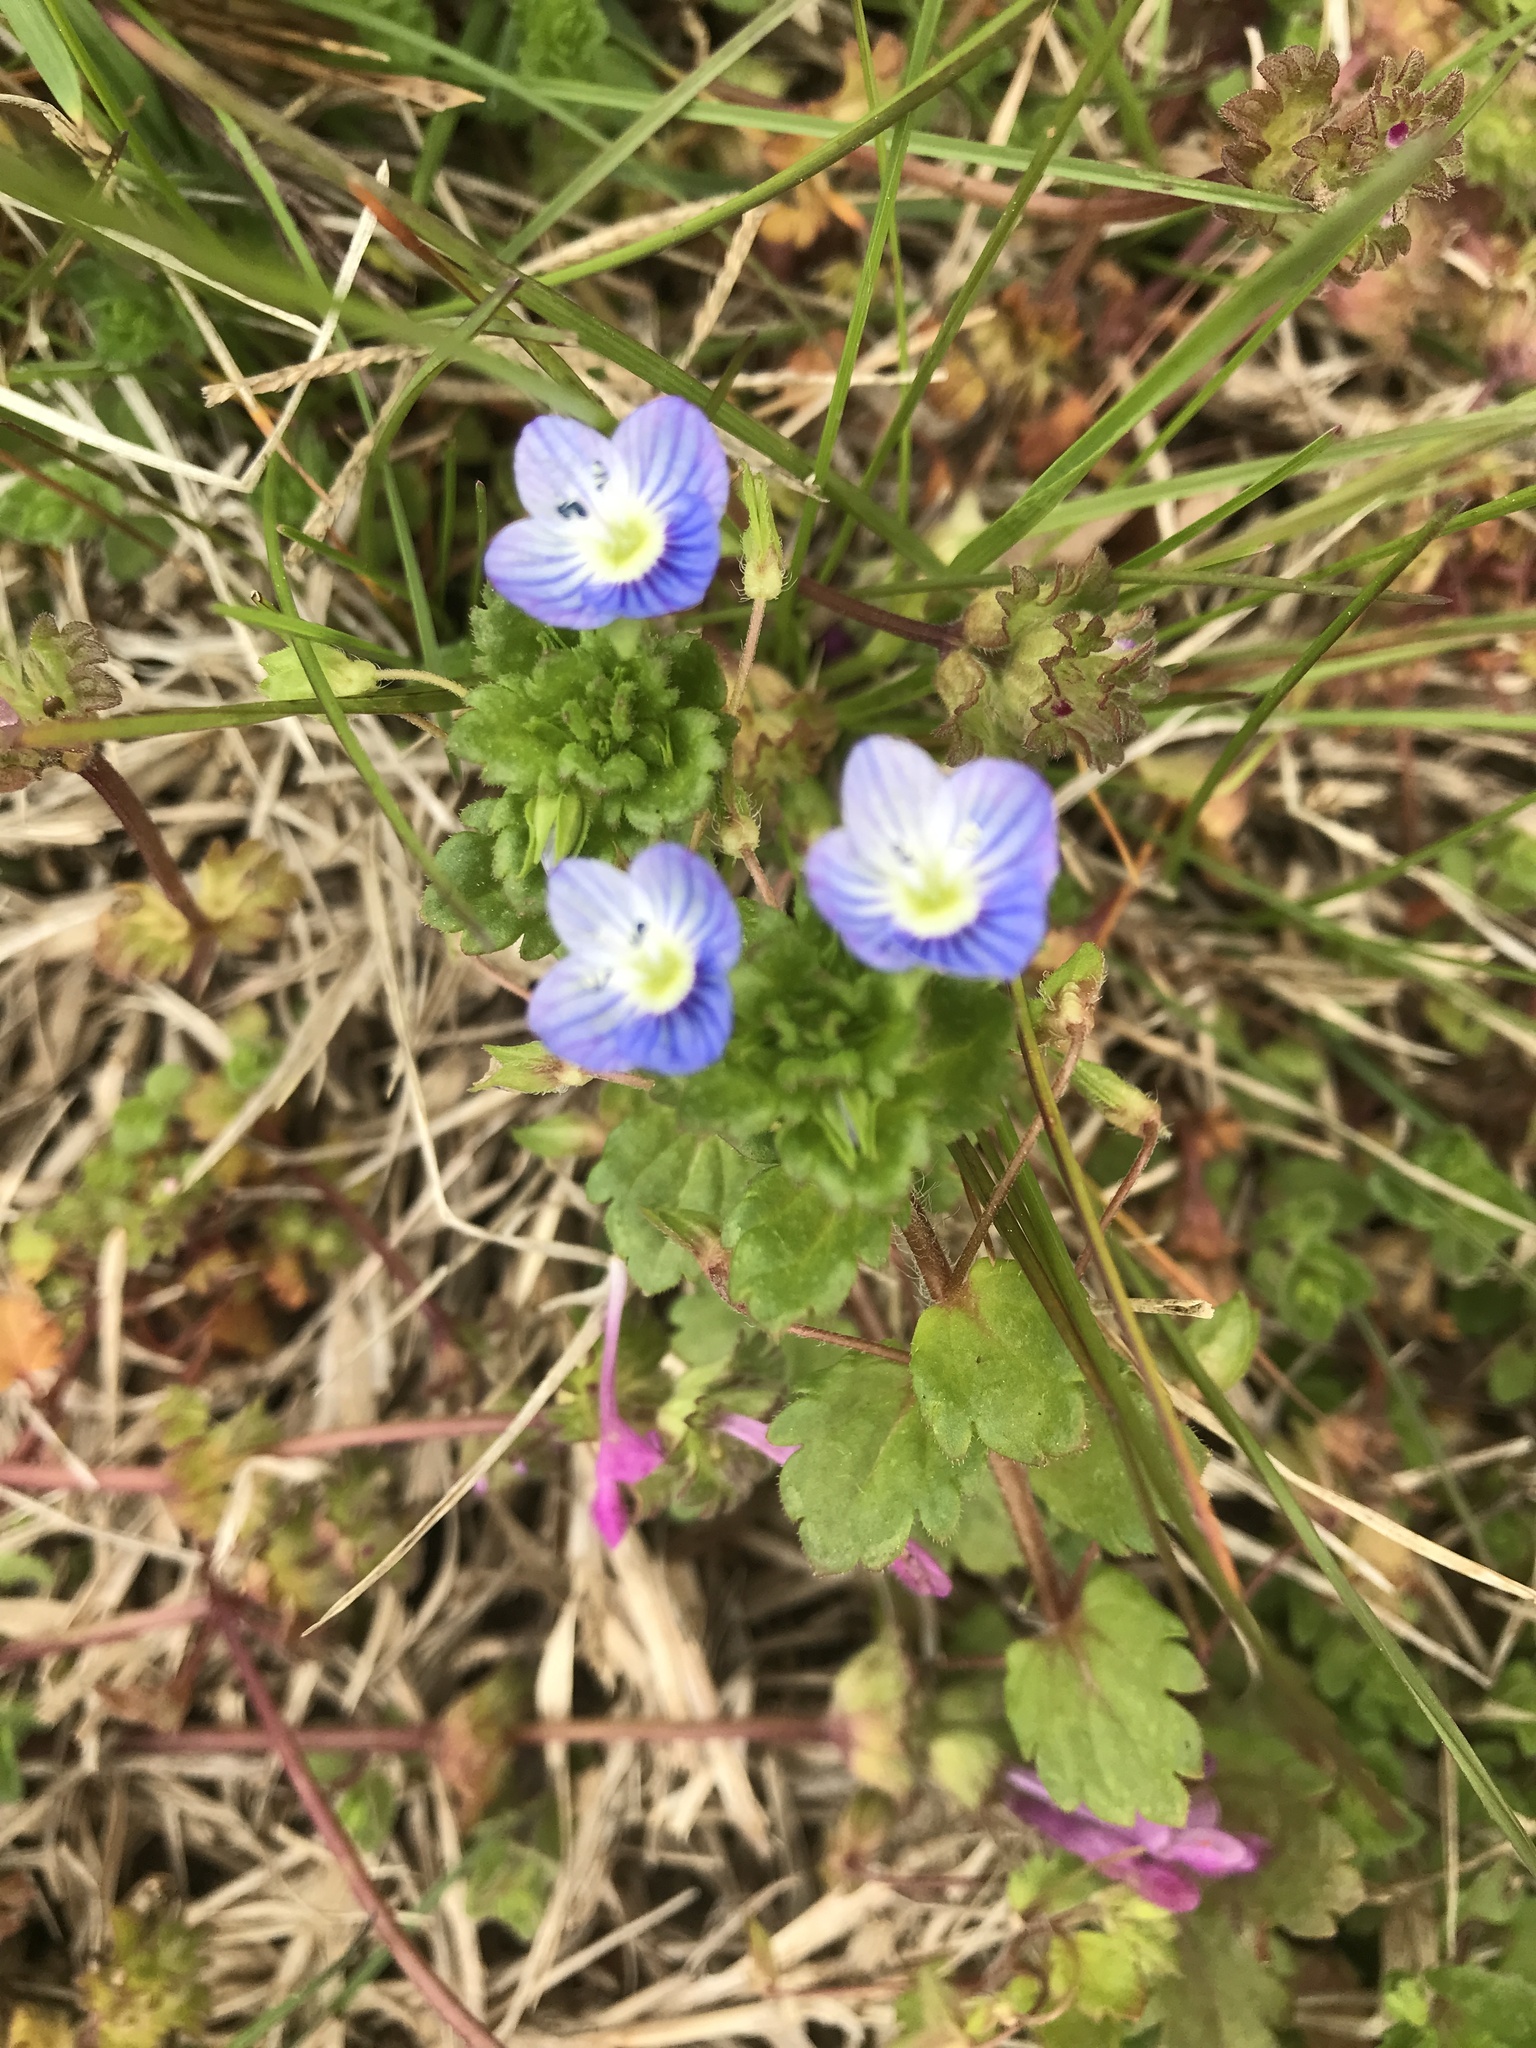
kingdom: Plantae
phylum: Tracheophyta
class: Magnoliopsida
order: Lamiales
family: Plantaginaceae
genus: Veronica
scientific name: Veronica persica
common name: Common field-speedwell
